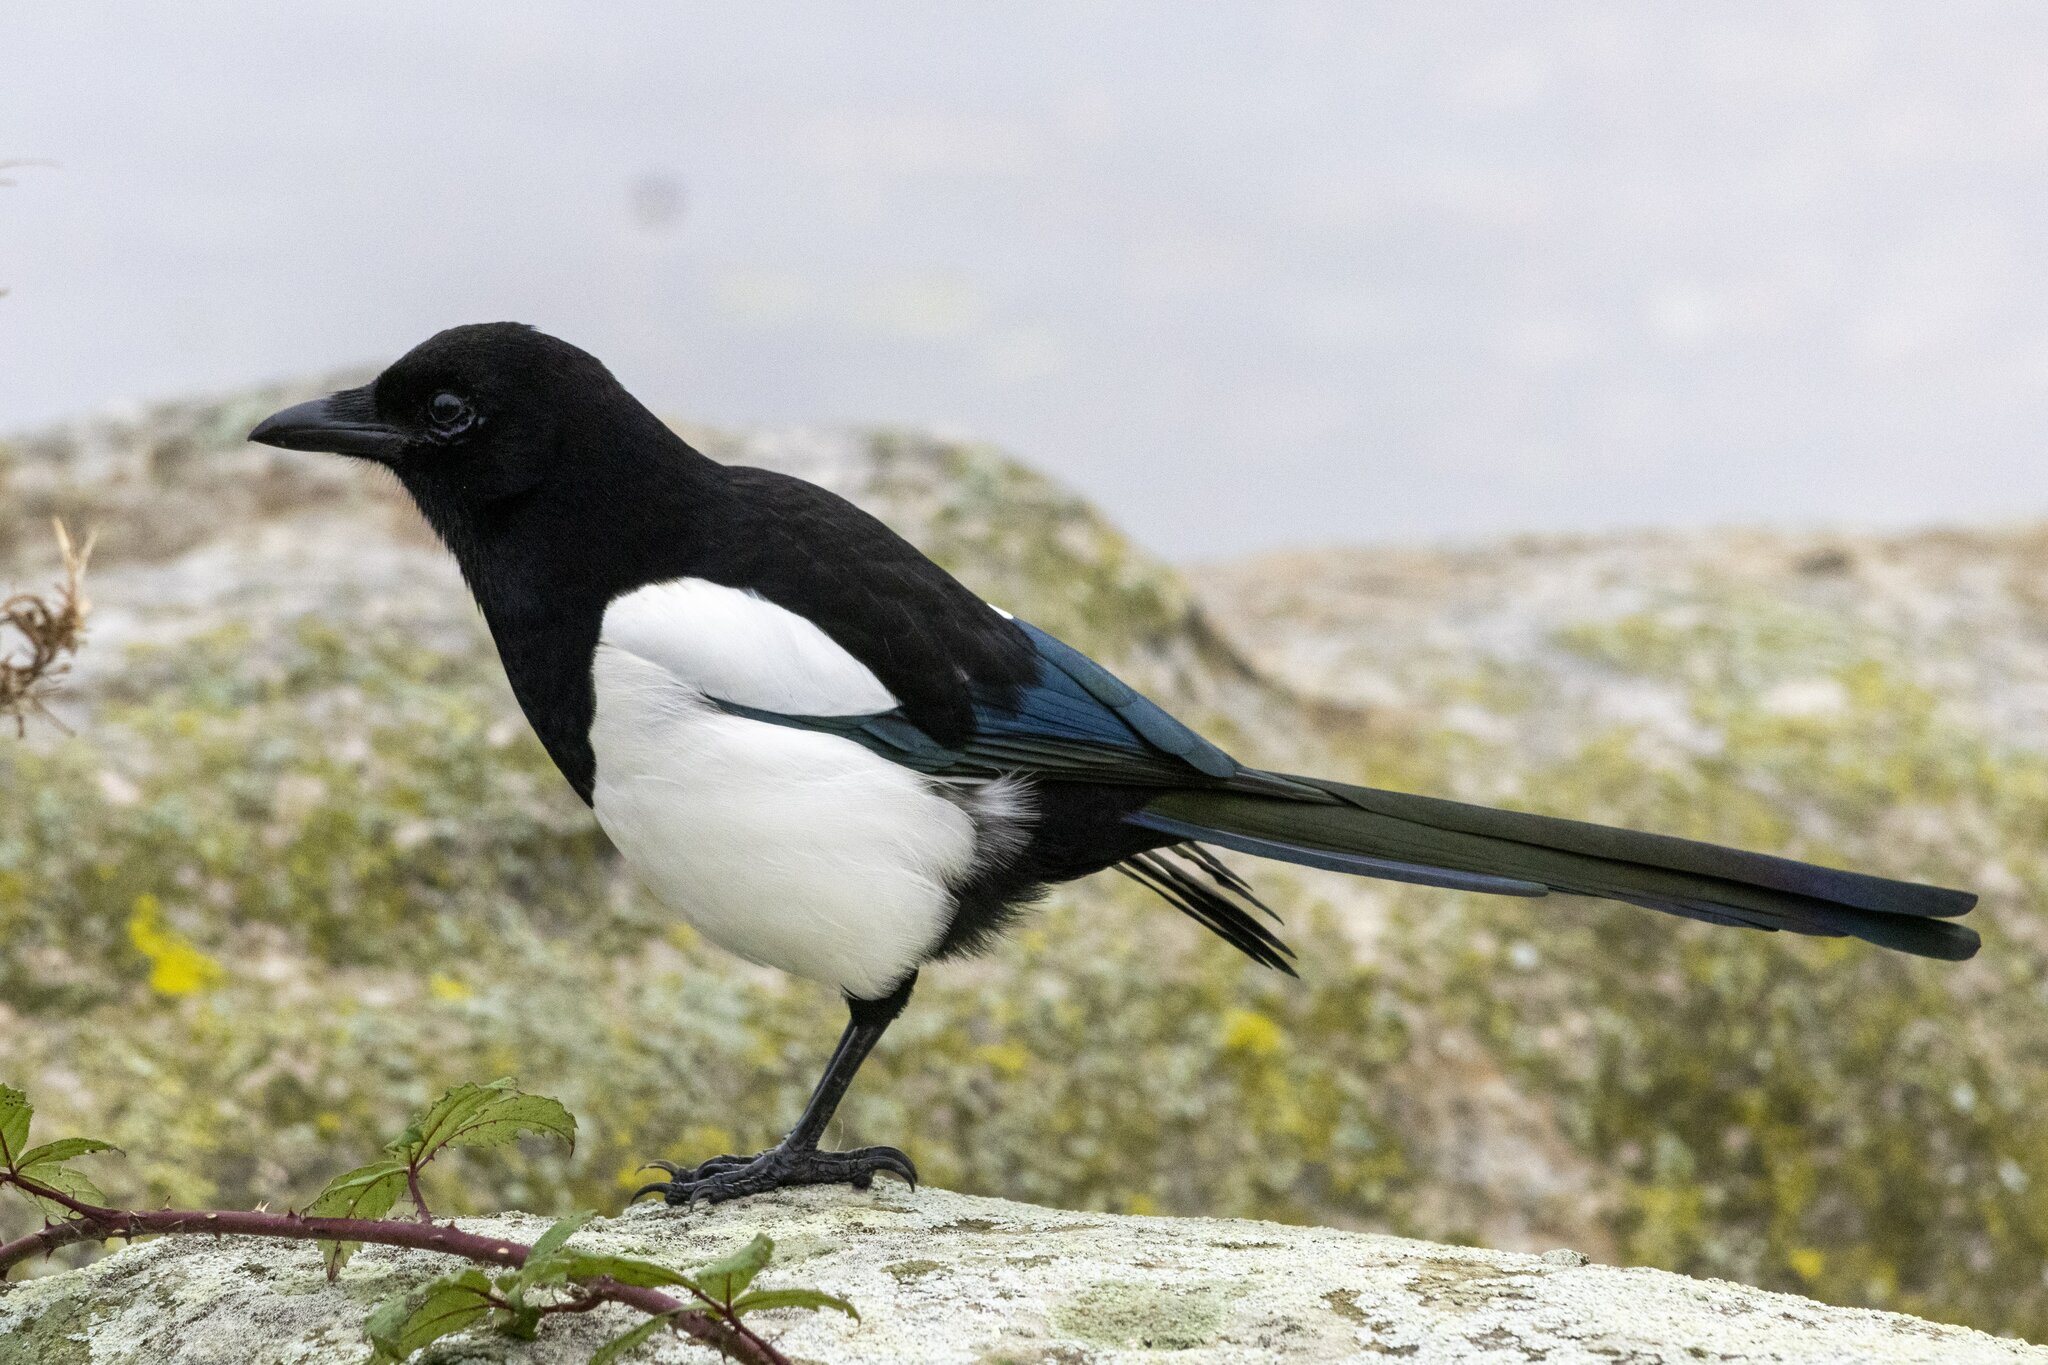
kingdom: Animalia
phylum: Chordata
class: Aves
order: Passeriformes
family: Corvidae
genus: Pica
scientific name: Pica pica
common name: Eurasian magpie
